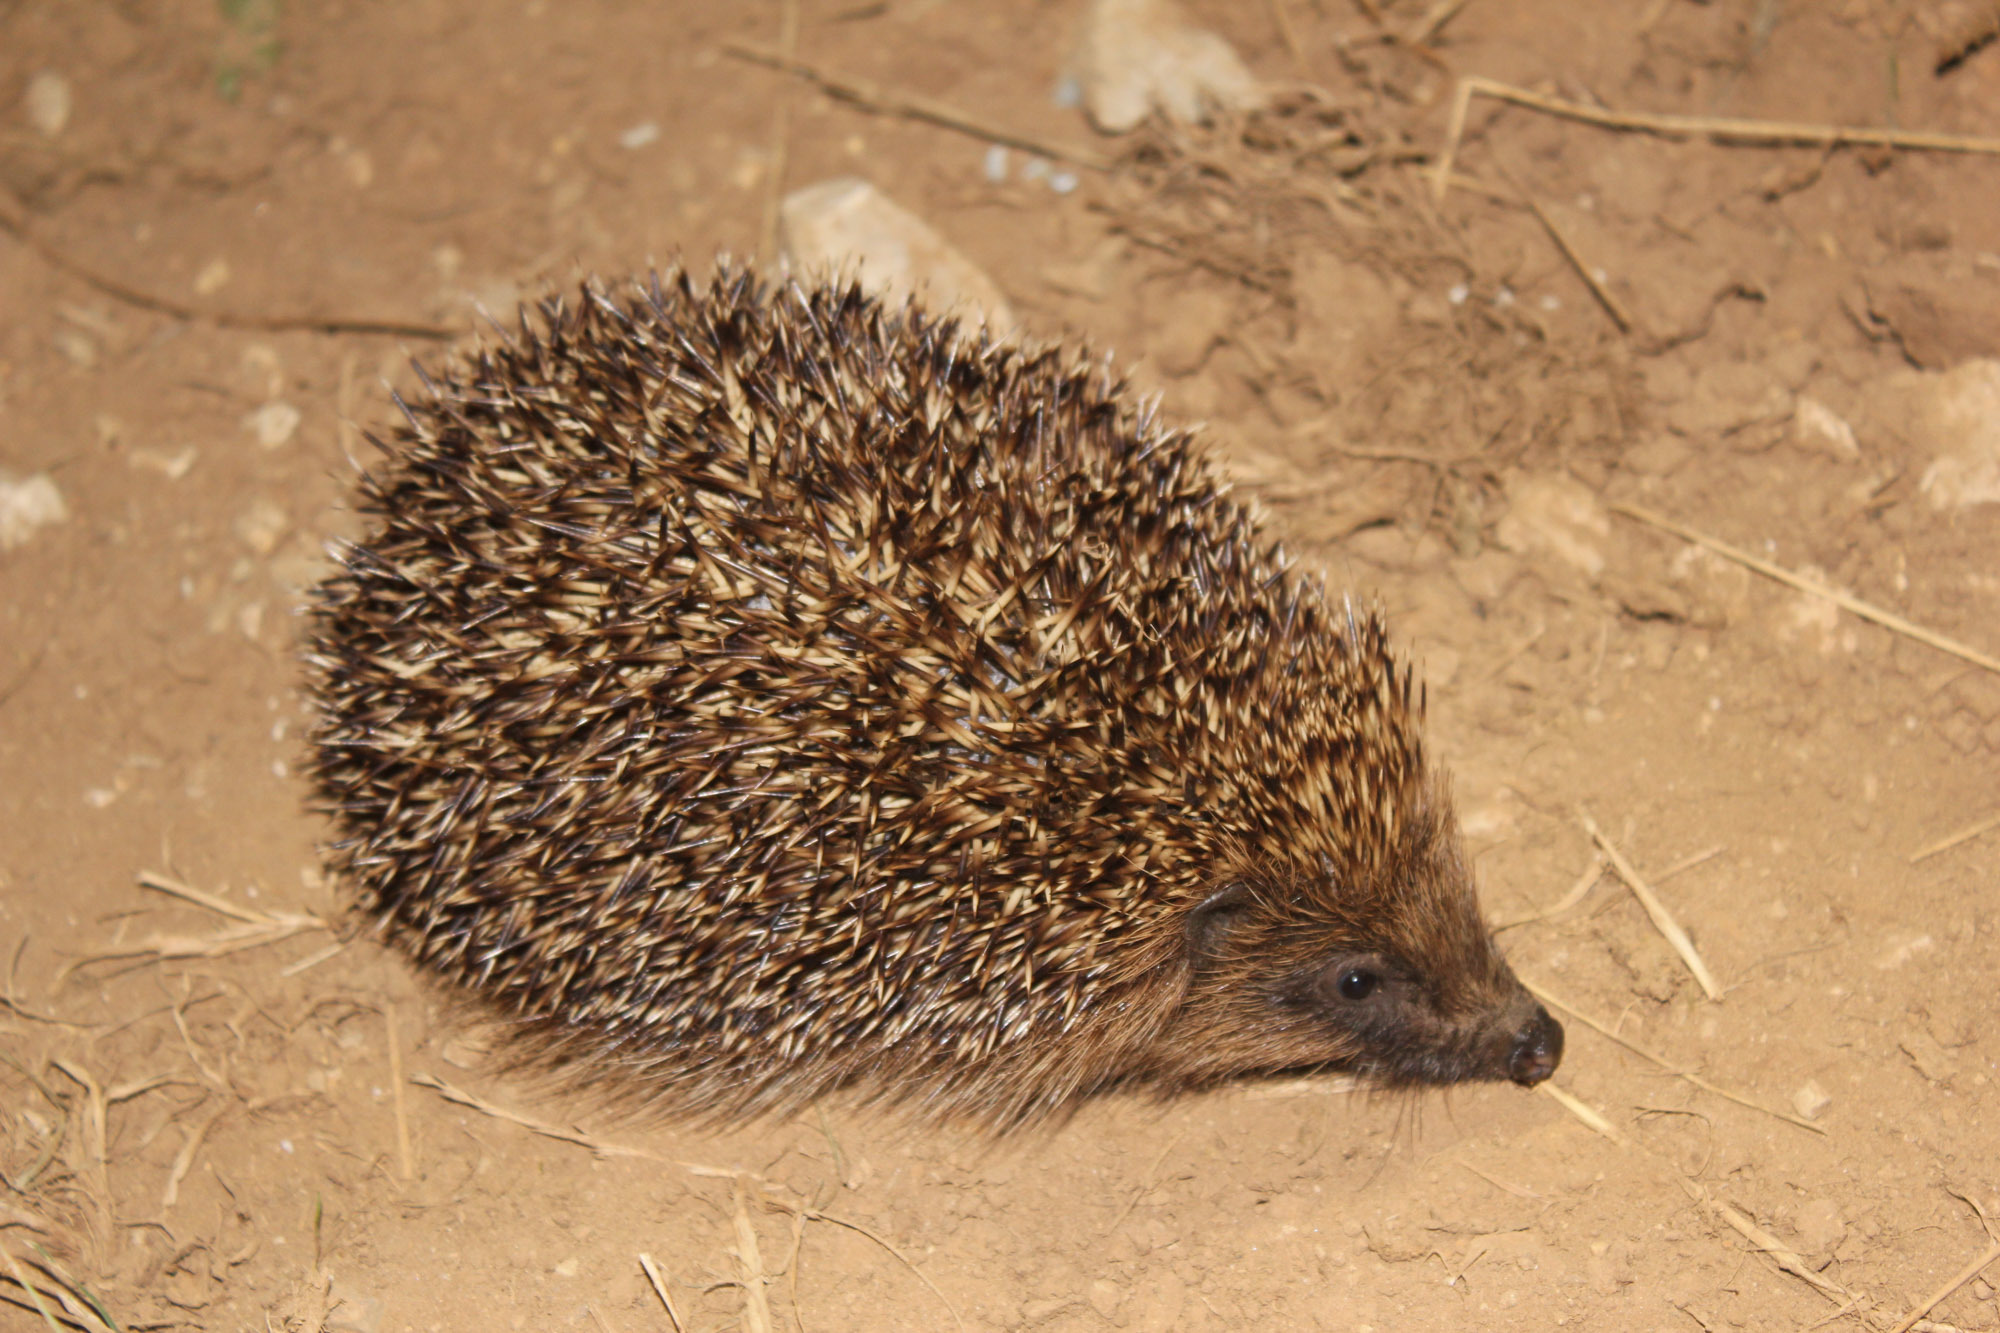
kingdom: Animalia
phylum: Chordata
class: Mammalia
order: Erinaceomorpha
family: Erinaceidae
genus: Erinaceus
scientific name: Erinaceus europaeus
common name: West european hedgehog
